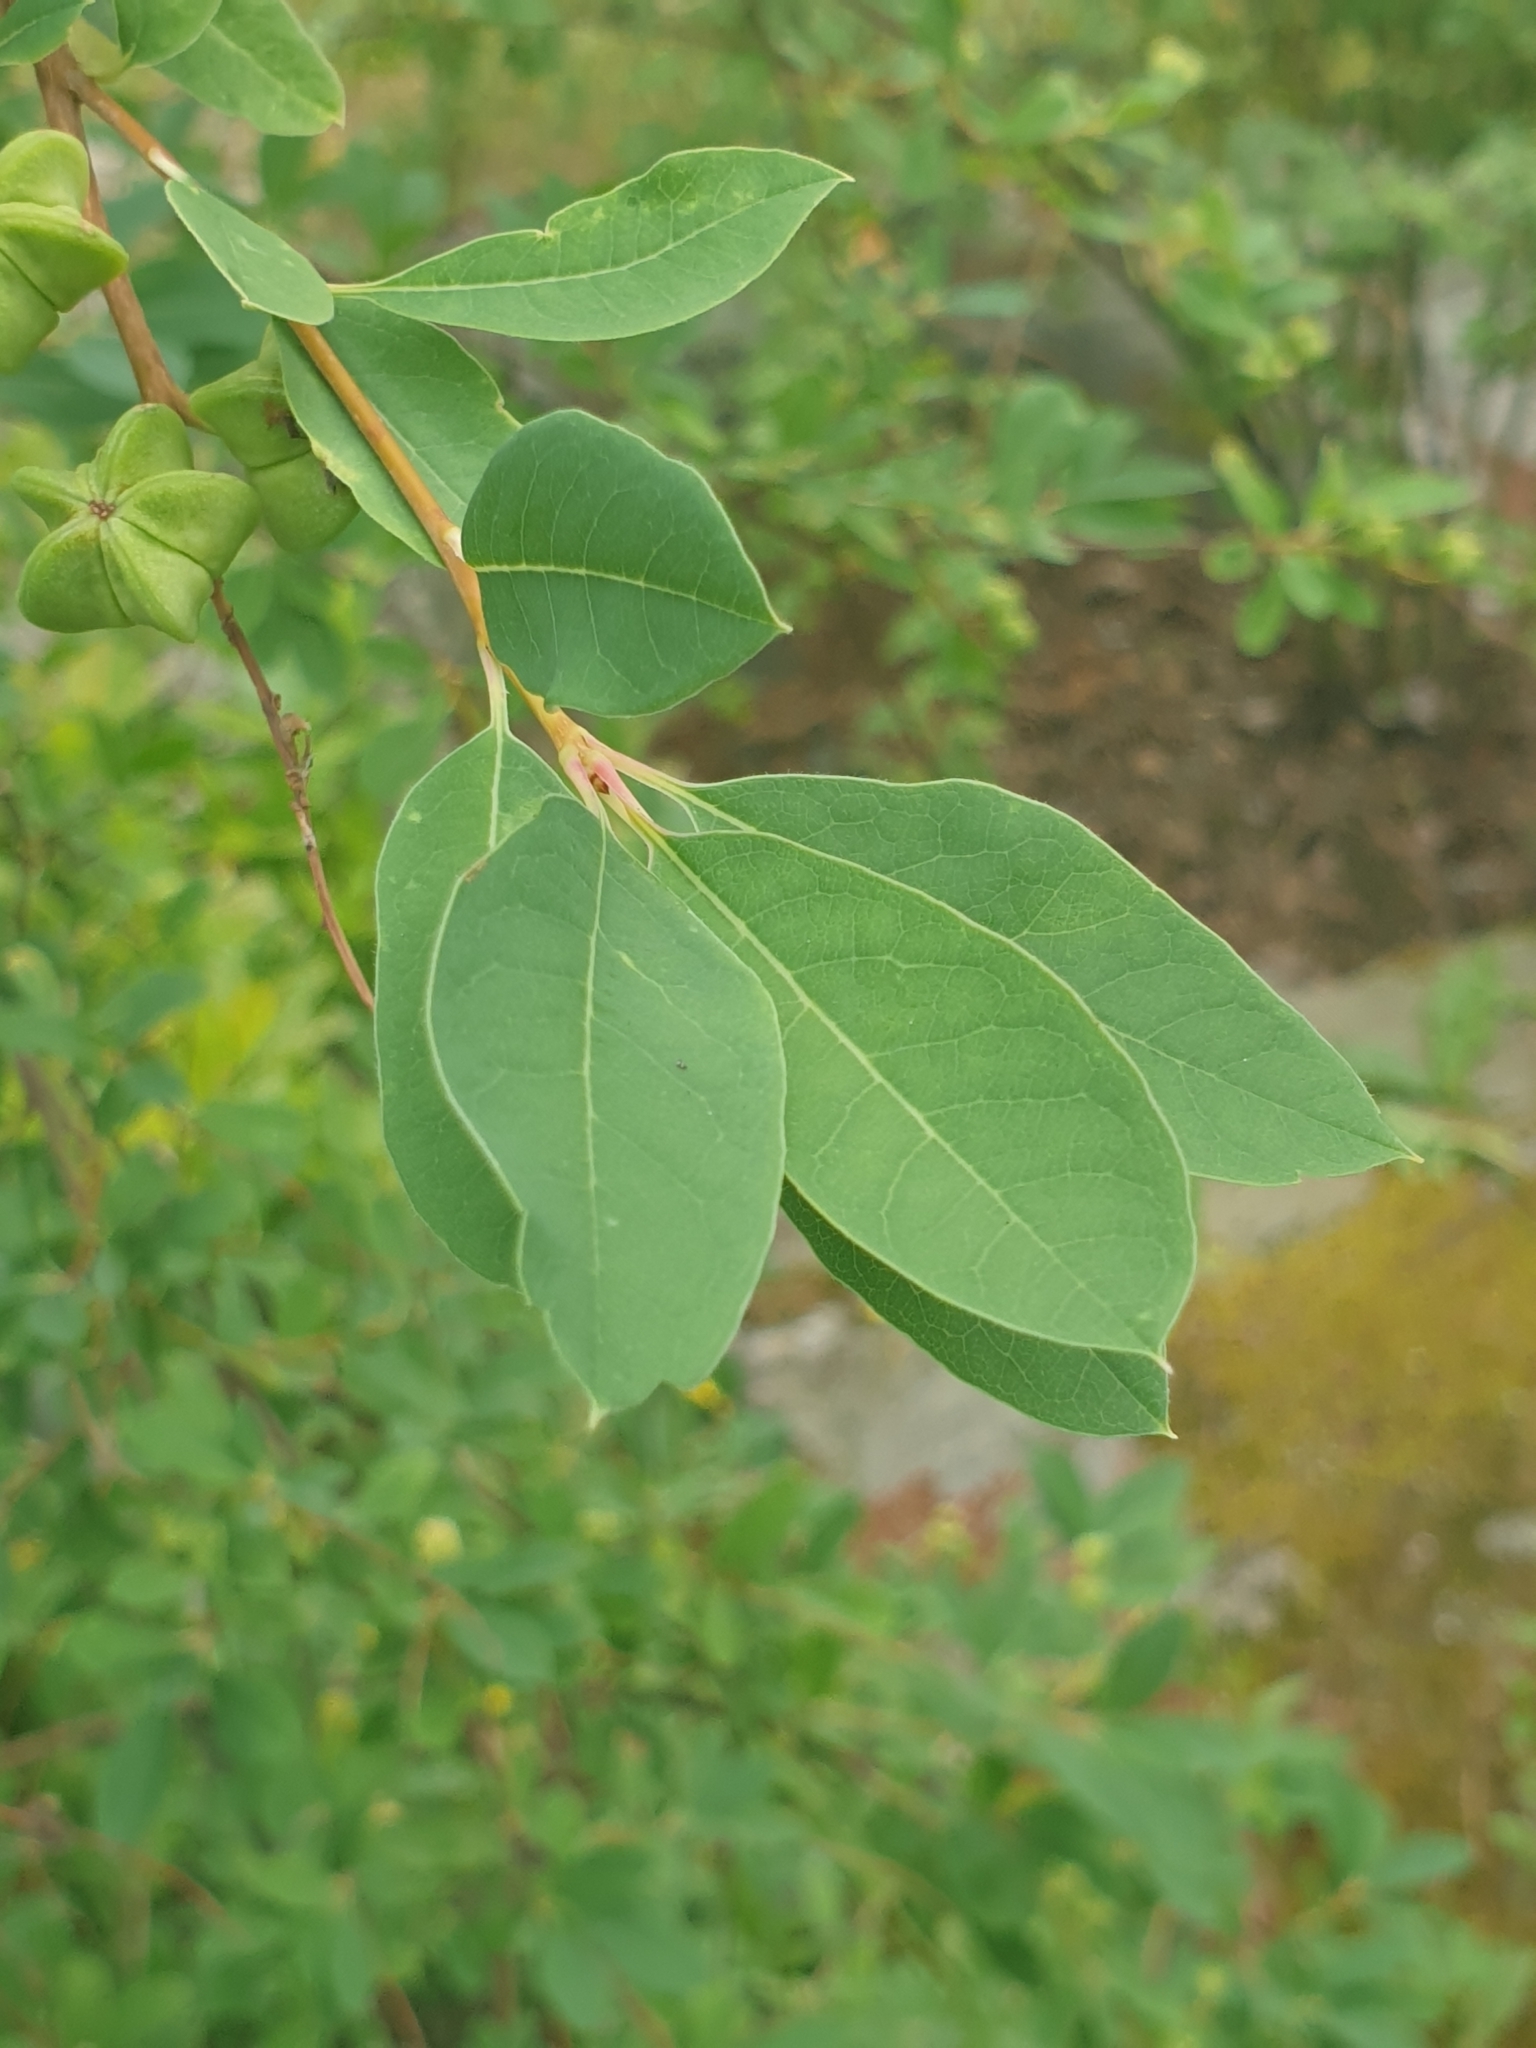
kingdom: Plantae
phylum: Tracheophyta
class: Magnoliopsida
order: Rosales
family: Rosaceae
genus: Exochorda
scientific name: Exochorda racemosa
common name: Common pearlbrush
